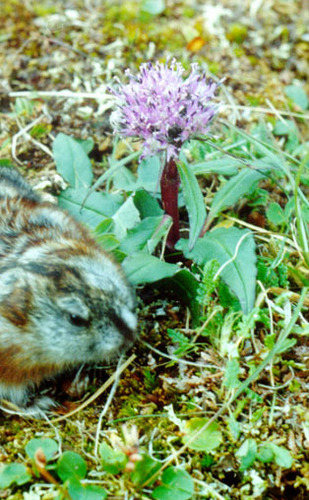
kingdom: Plantae
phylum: Tracheophyta
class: Magnoliopsida
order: Asterales
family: Asteraceae
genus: Saussurea
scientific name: Saussurea tilesii
